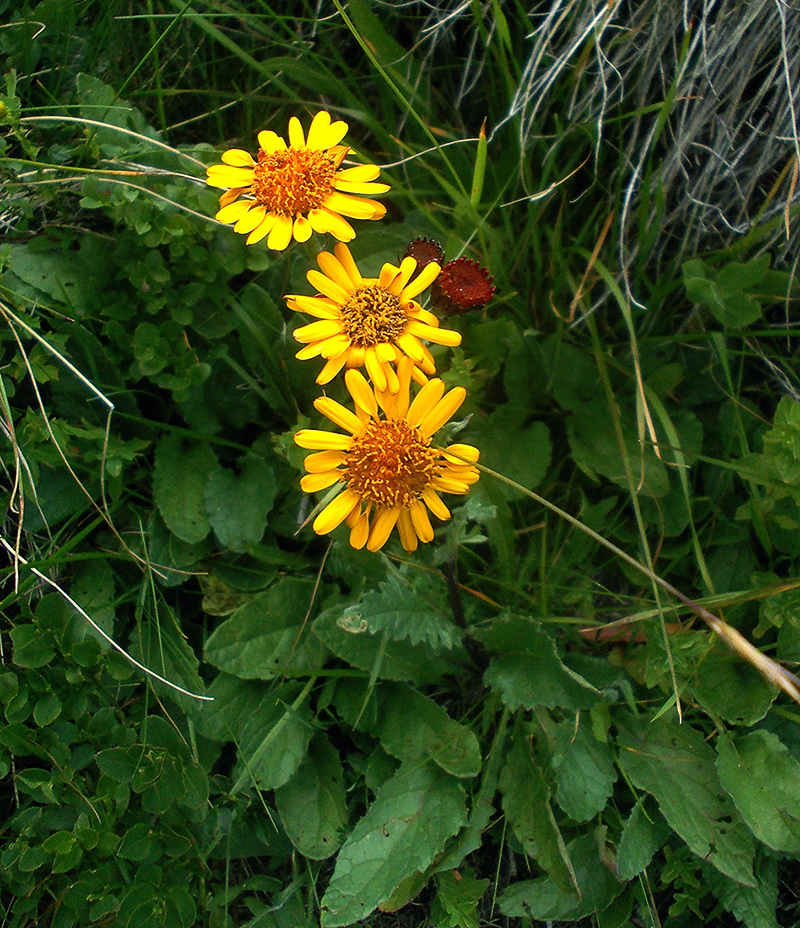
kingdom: Plantae
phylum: Tracheophyta
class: Magnoliopsida
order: Asterales
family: Asteraceae
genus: Jacobaea
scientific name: Jacobaea pancicii
